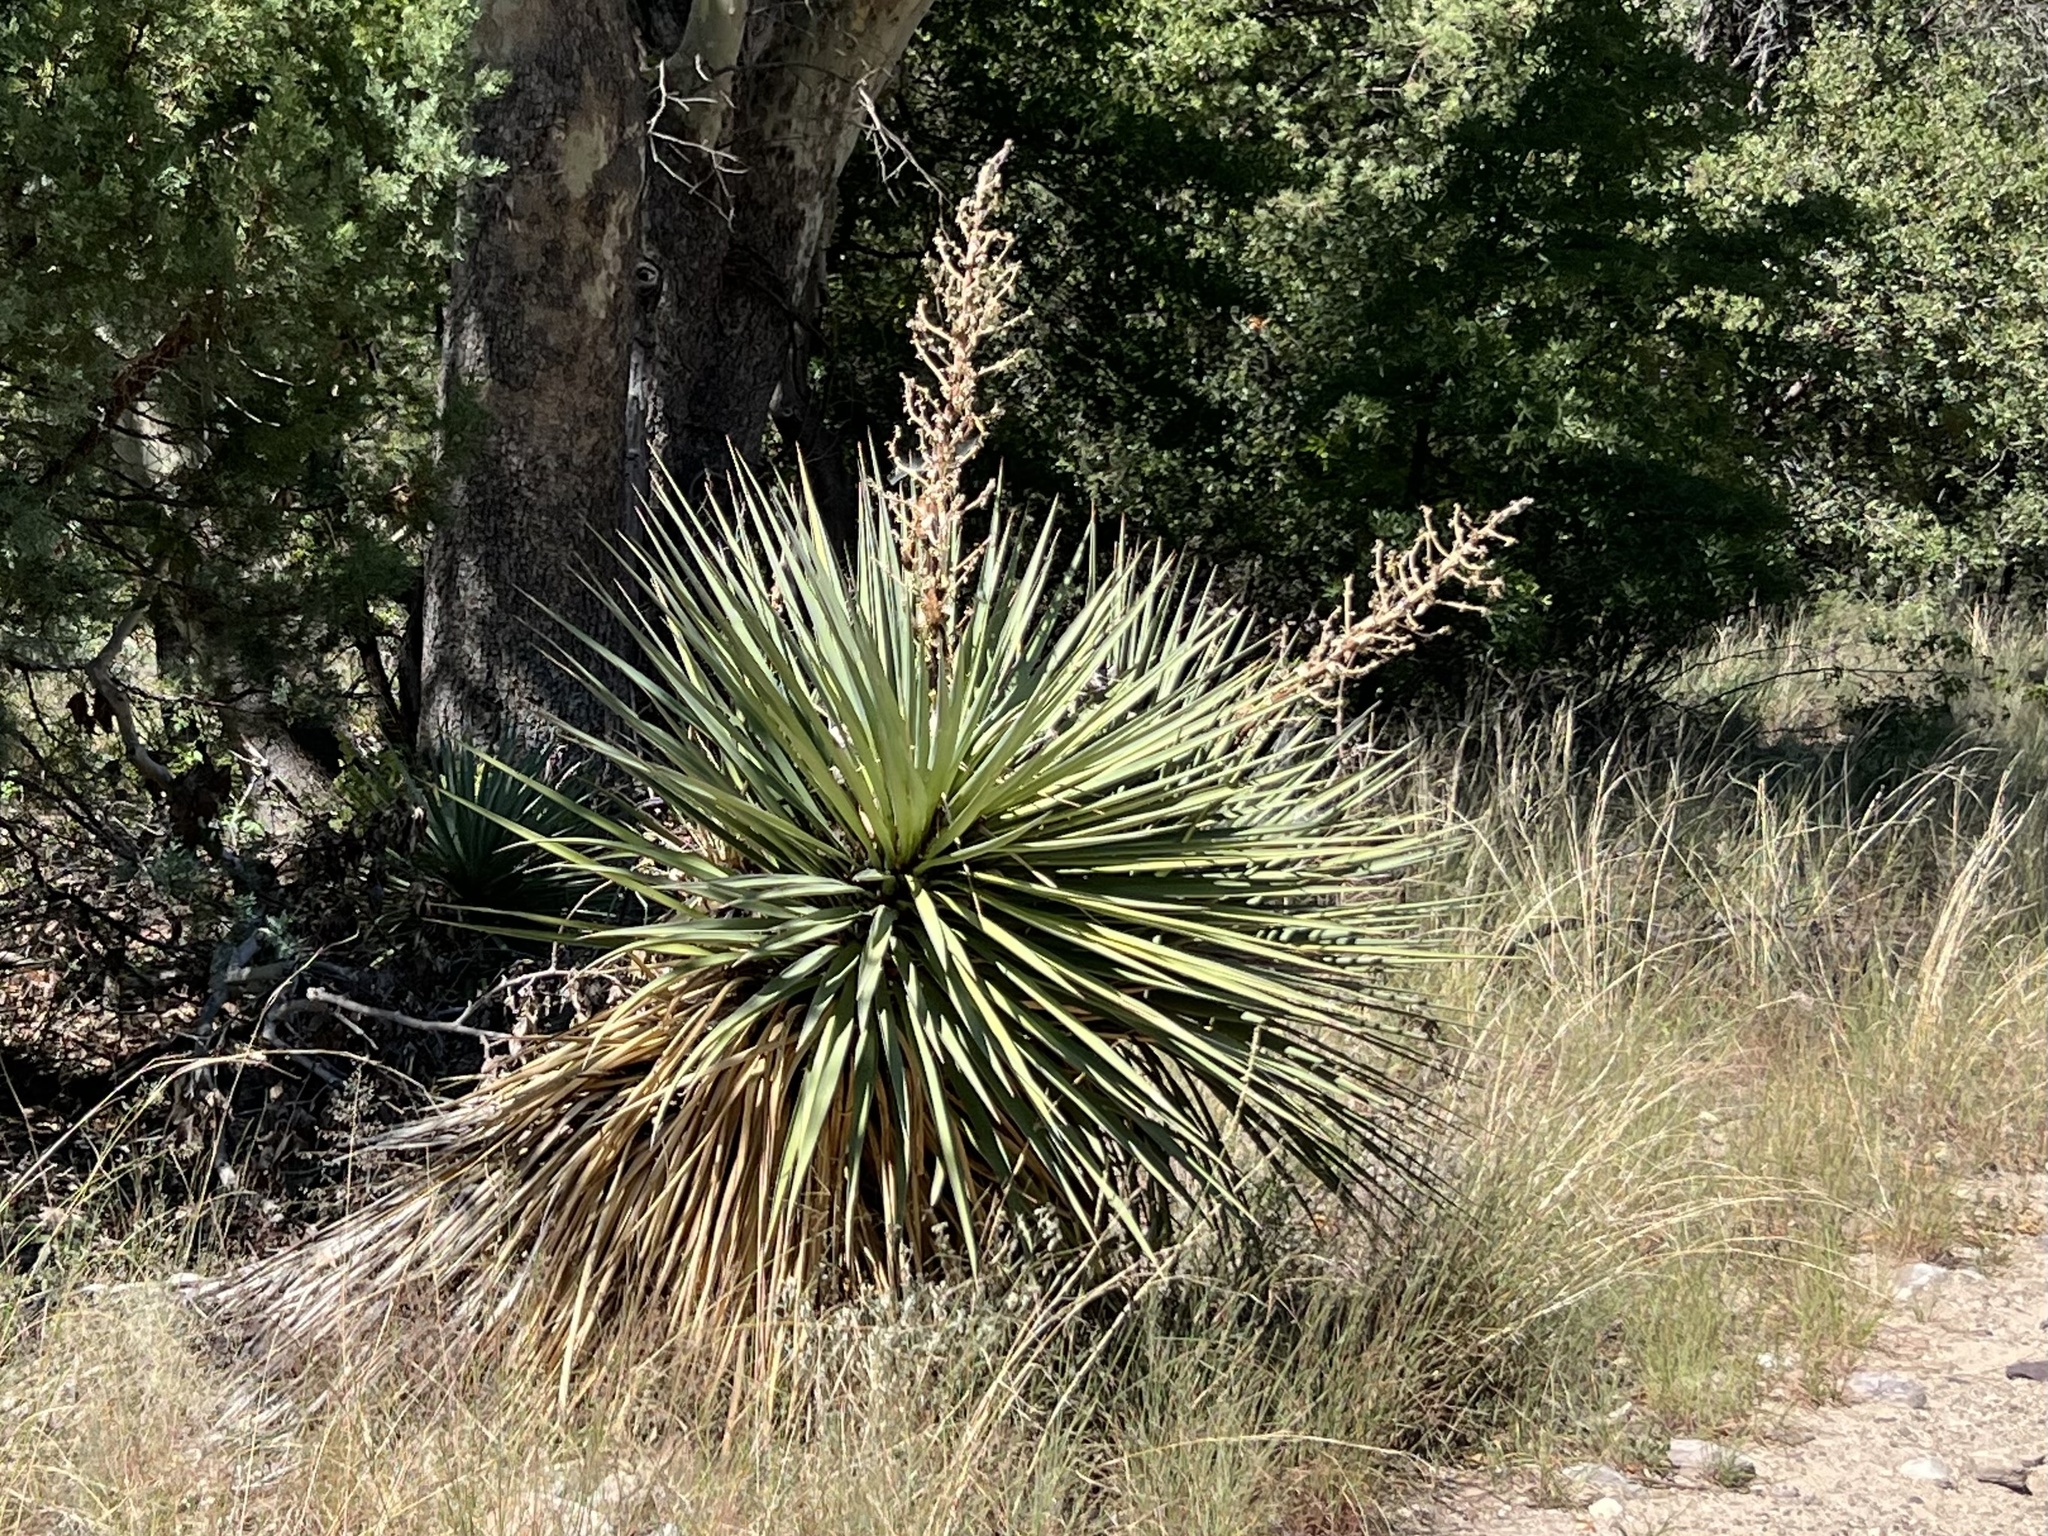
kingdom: Plantae
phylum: Tracheophyta
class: Liliopsida
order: Asparagales
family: Asparagaceae
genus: Yucca
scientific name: Yucca schottii
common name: Hoary yucca
